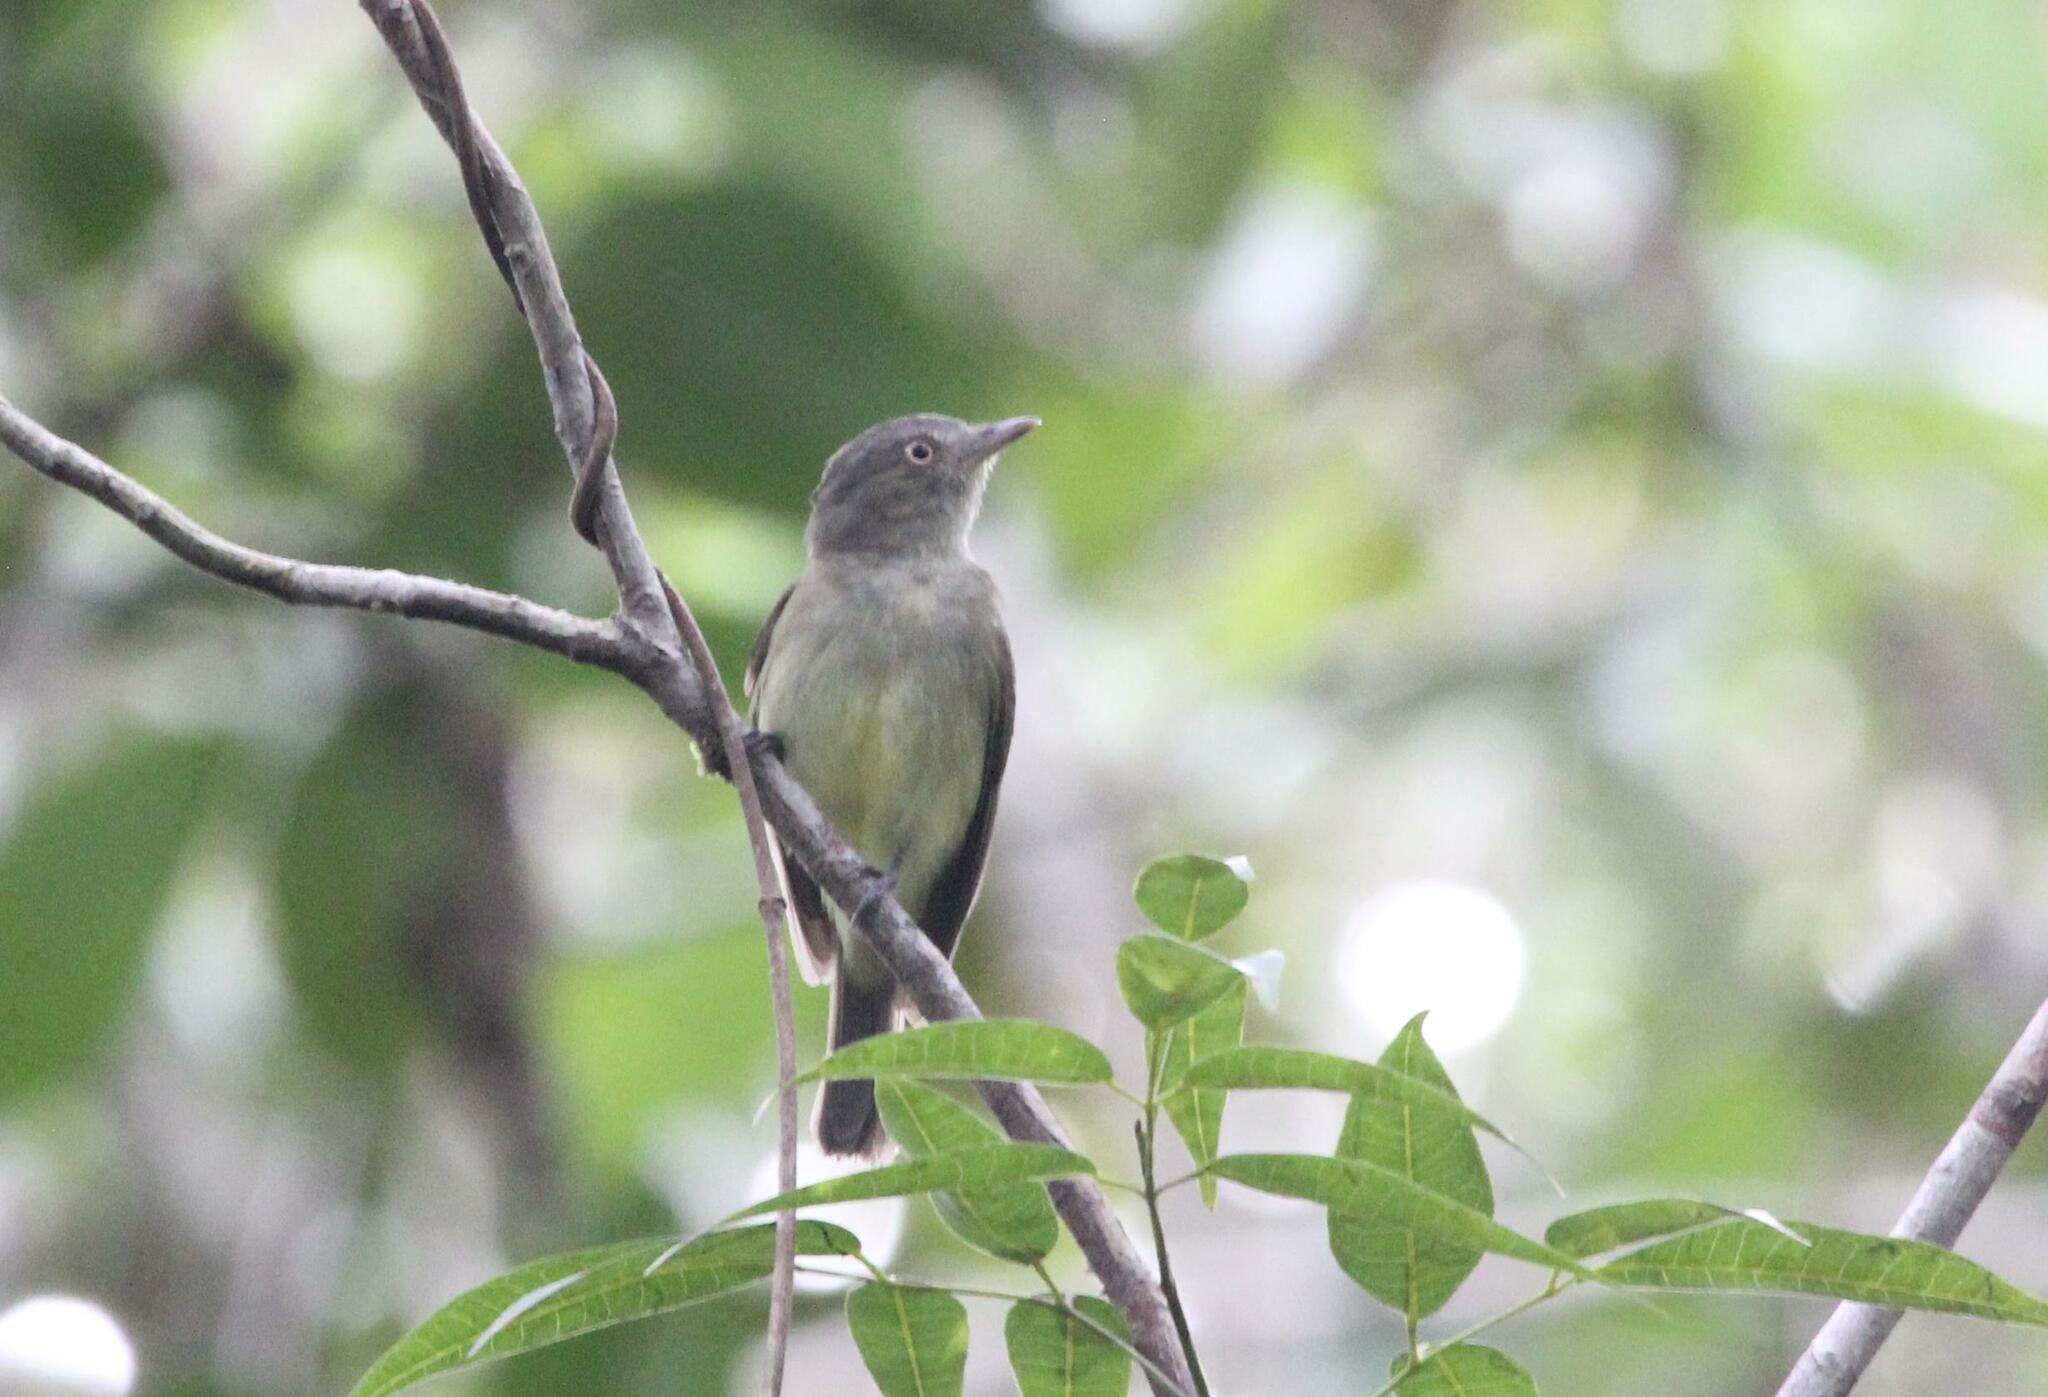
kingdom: Animalia
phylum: Chordata
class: Aves
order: Passeriformes
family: Pipridae
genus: Neopelma
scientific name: Neopelma chrysocephalum
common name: Saffron-crested tyrant-manakin
